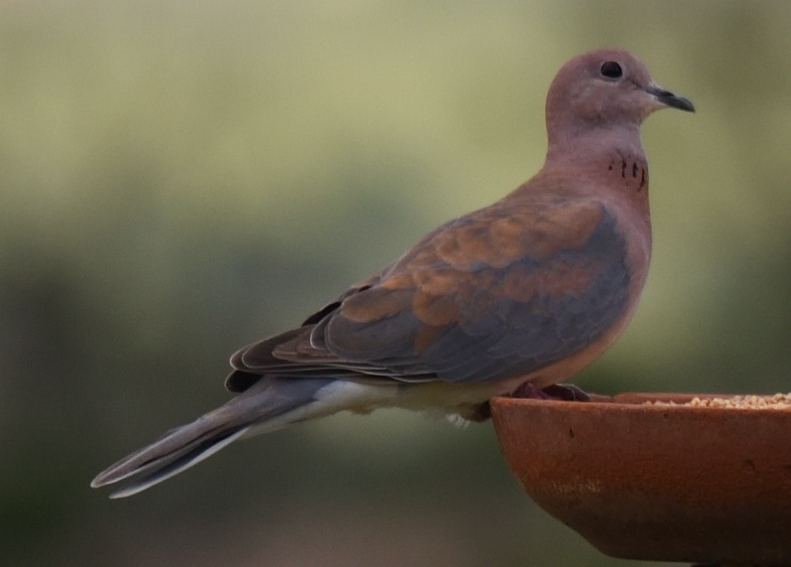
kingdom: Animalia
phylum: Chordata
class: Aves
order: Columbiformes
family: Columbidae
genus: Spilopelia
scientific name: Spilopelia senegalensis
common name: Laughing dove
